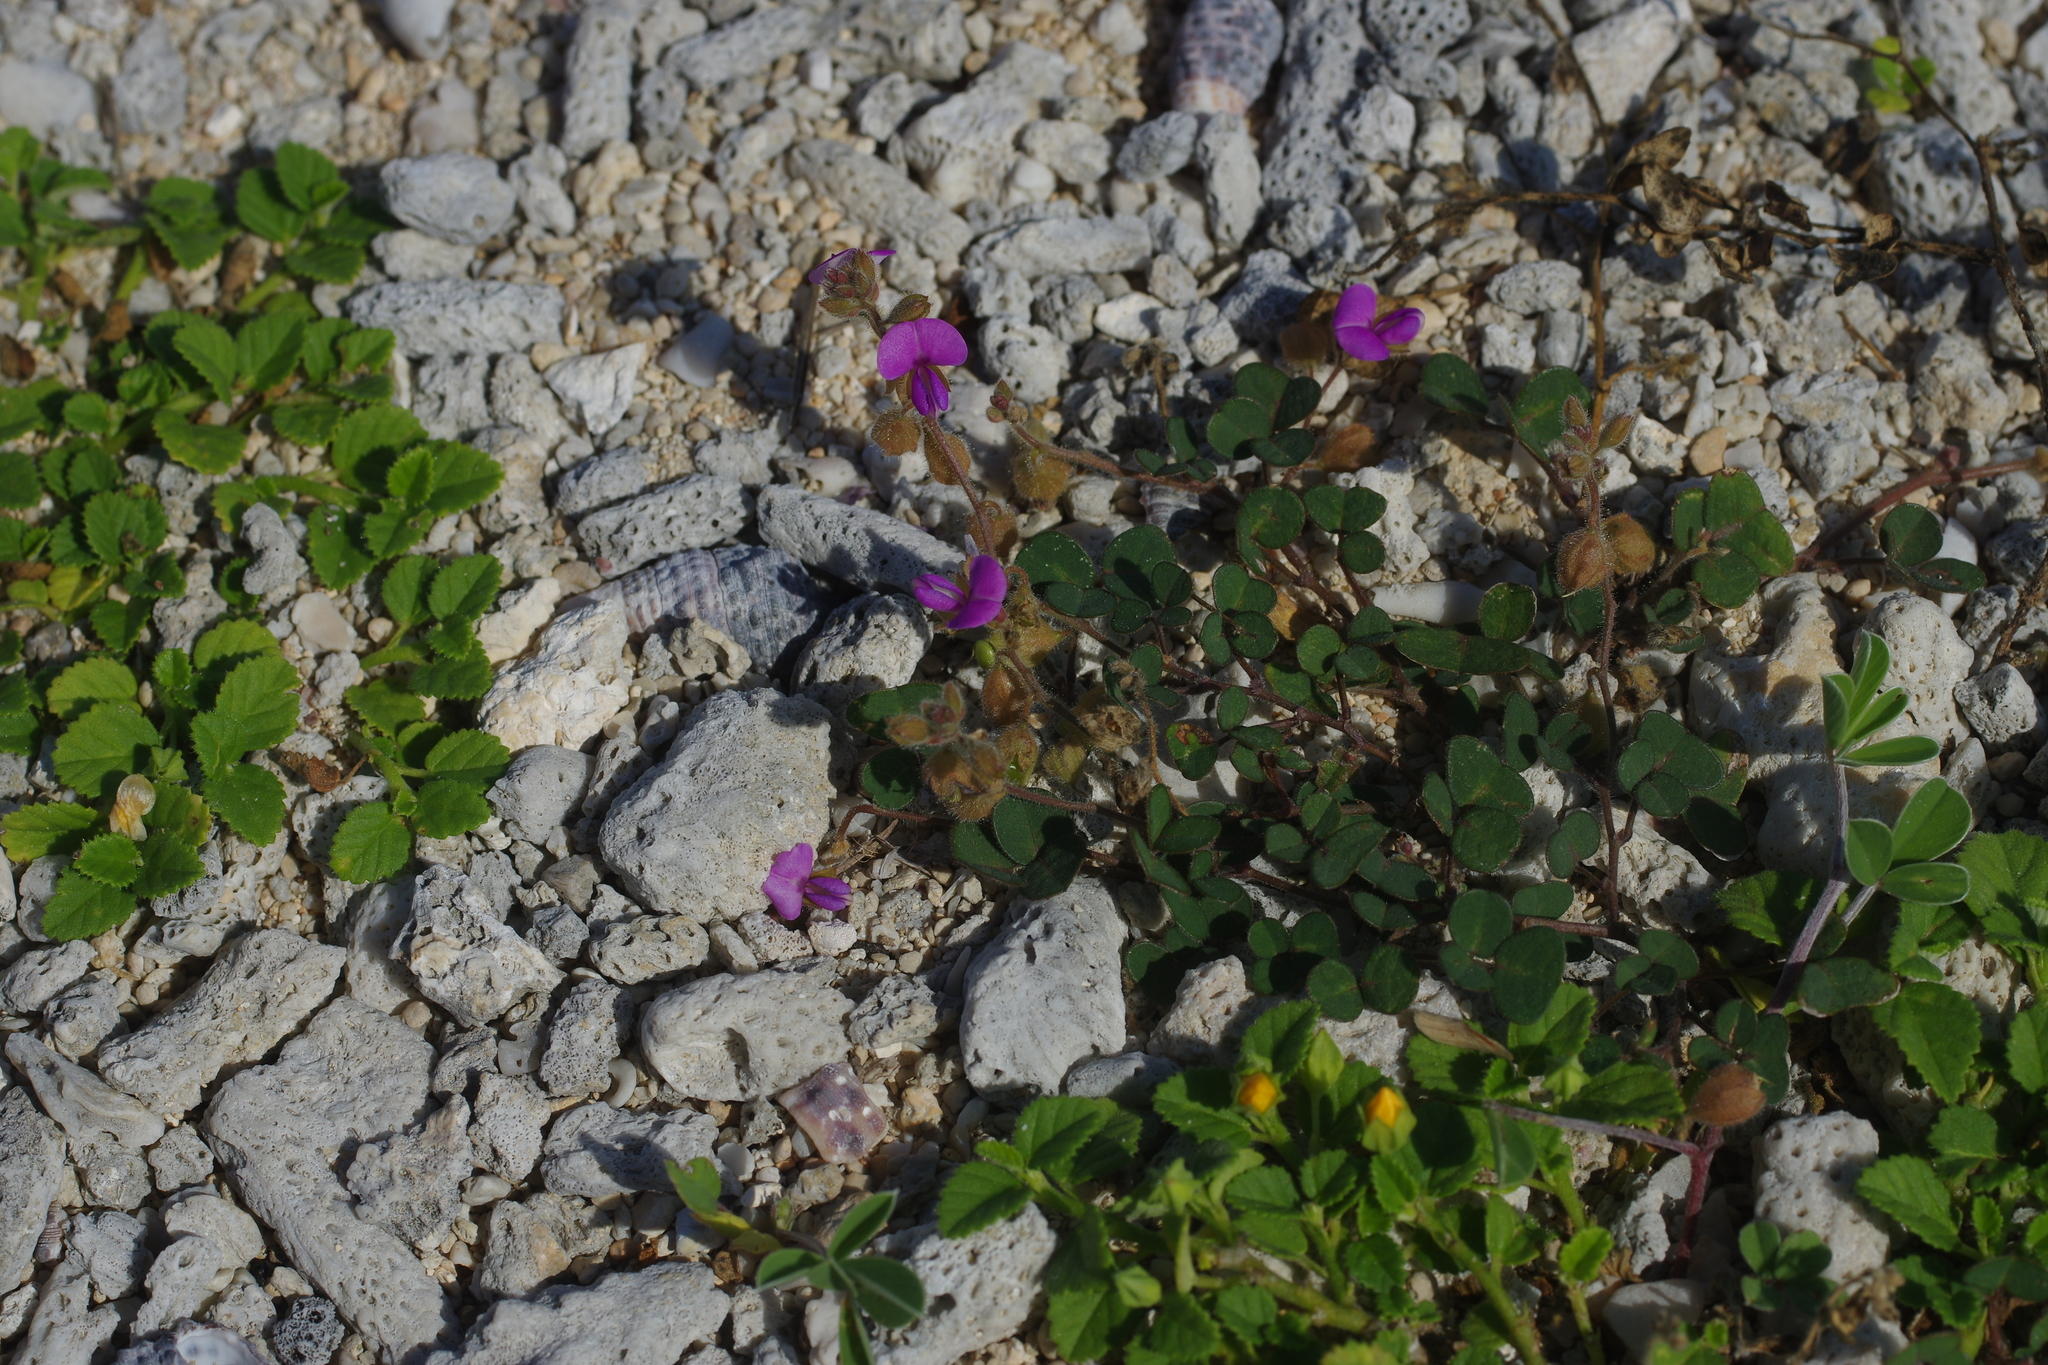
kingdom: Plantae
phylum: Tracheophyta
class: Magnoliopsida
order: Fabales
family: Fabaceae
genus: Christia
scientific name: Christia obcordata
